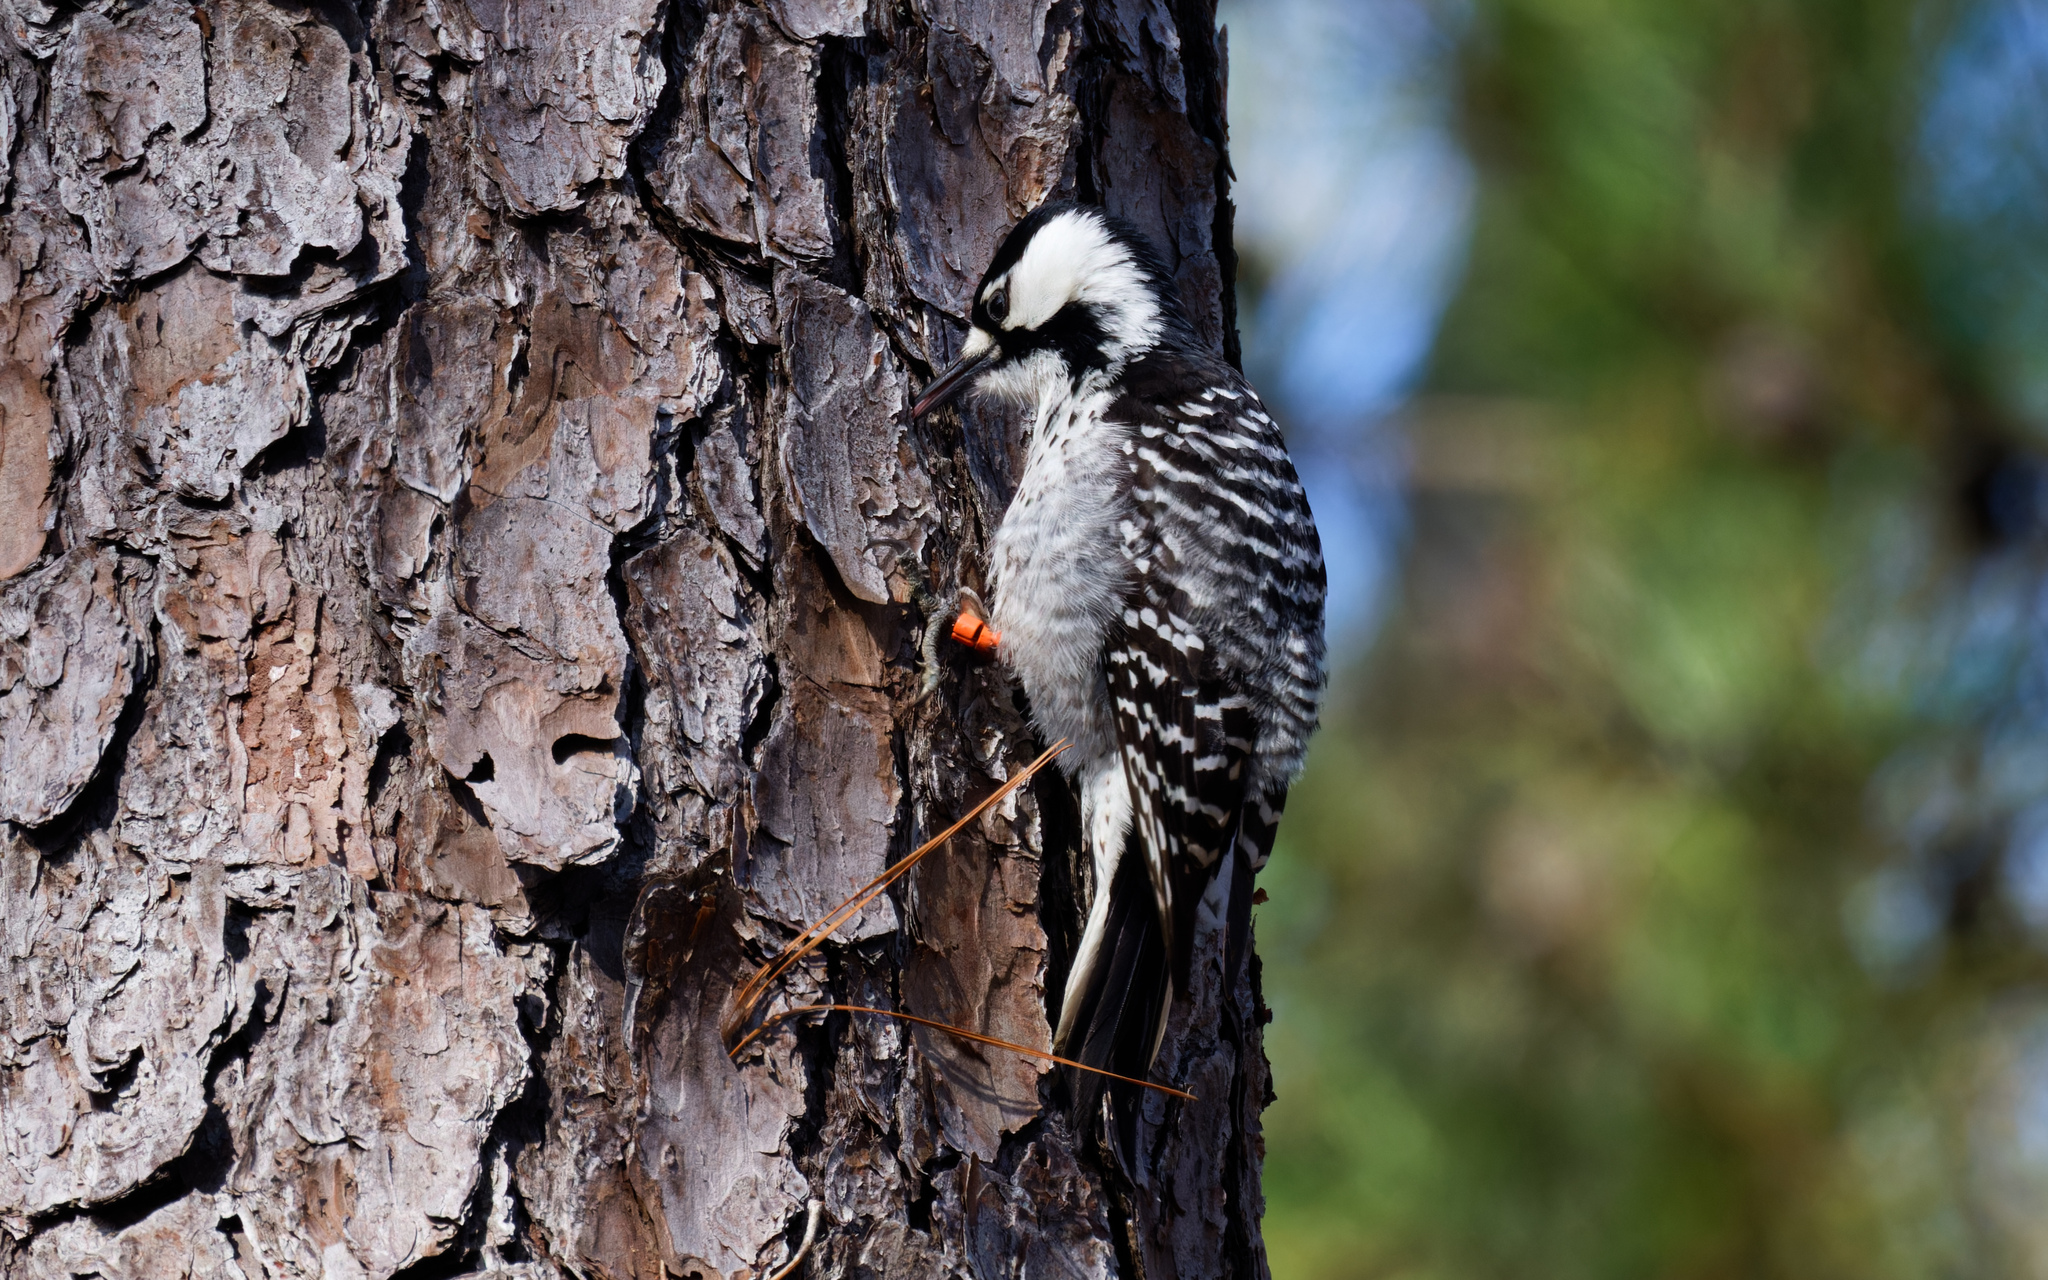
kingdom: Animalia
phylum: Chordata
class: Aves
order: Piciformes
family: Picidae
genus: Leuconotopicus
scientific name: Leuconotopicus borealis
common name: Red-cockaded woodpecker
